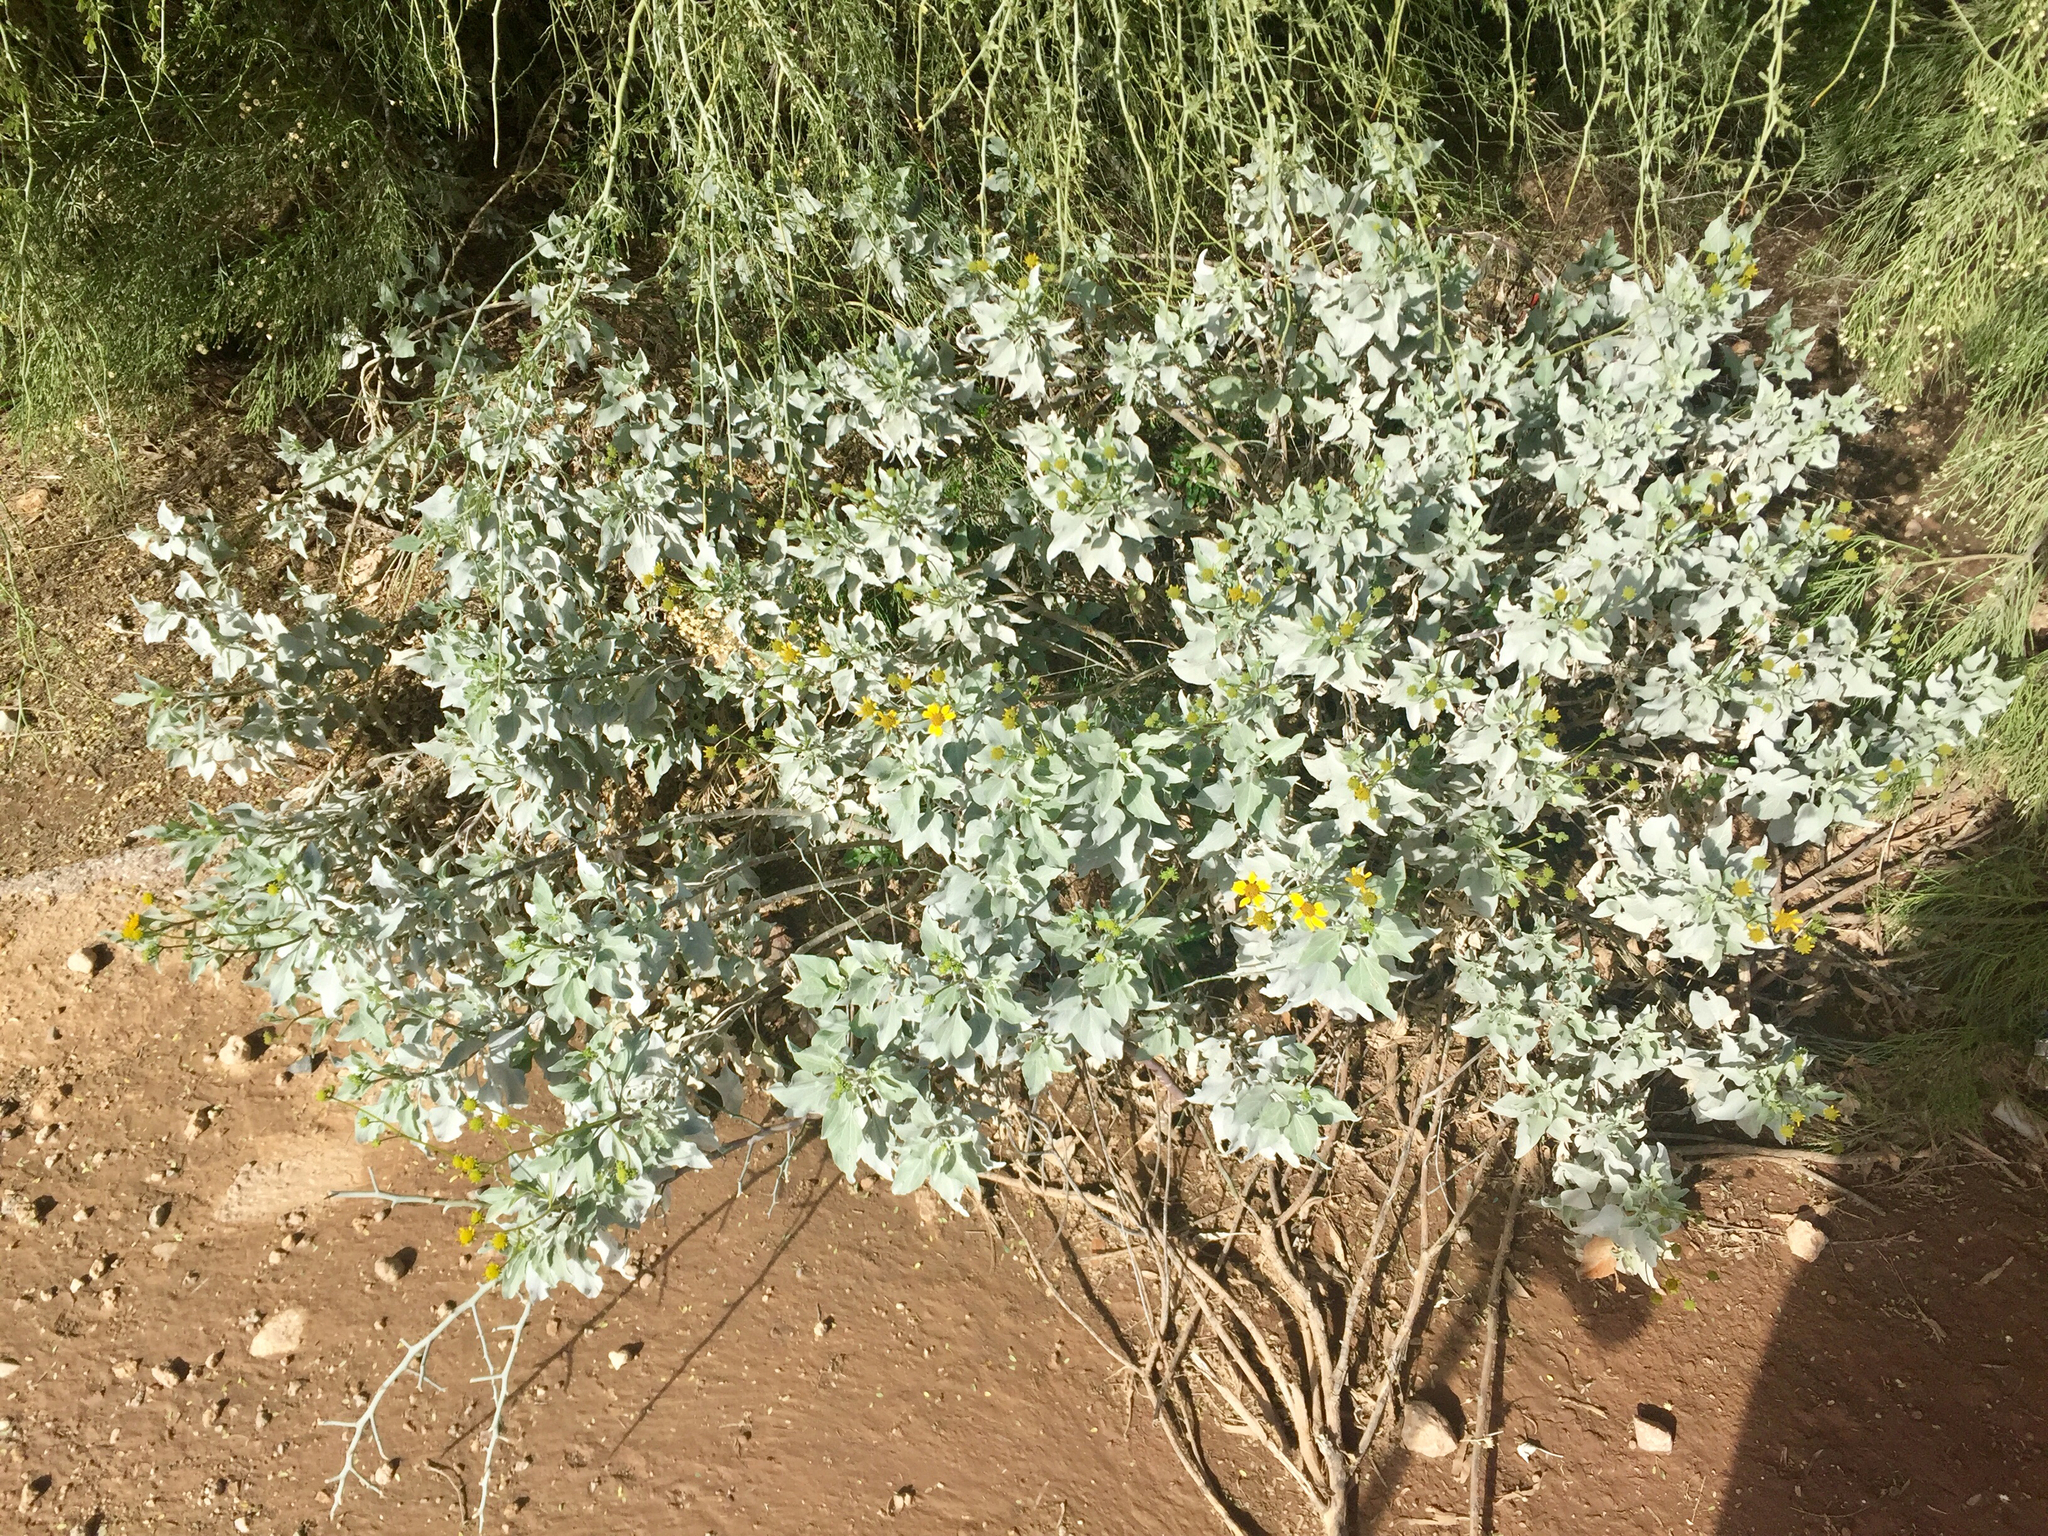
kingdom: Plantae
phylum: Tracheophyta
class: Magnoliopsida
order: Asterales
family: Asteraceae
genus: Encelia
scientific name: Encelia farinosa
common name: Brittlebush
